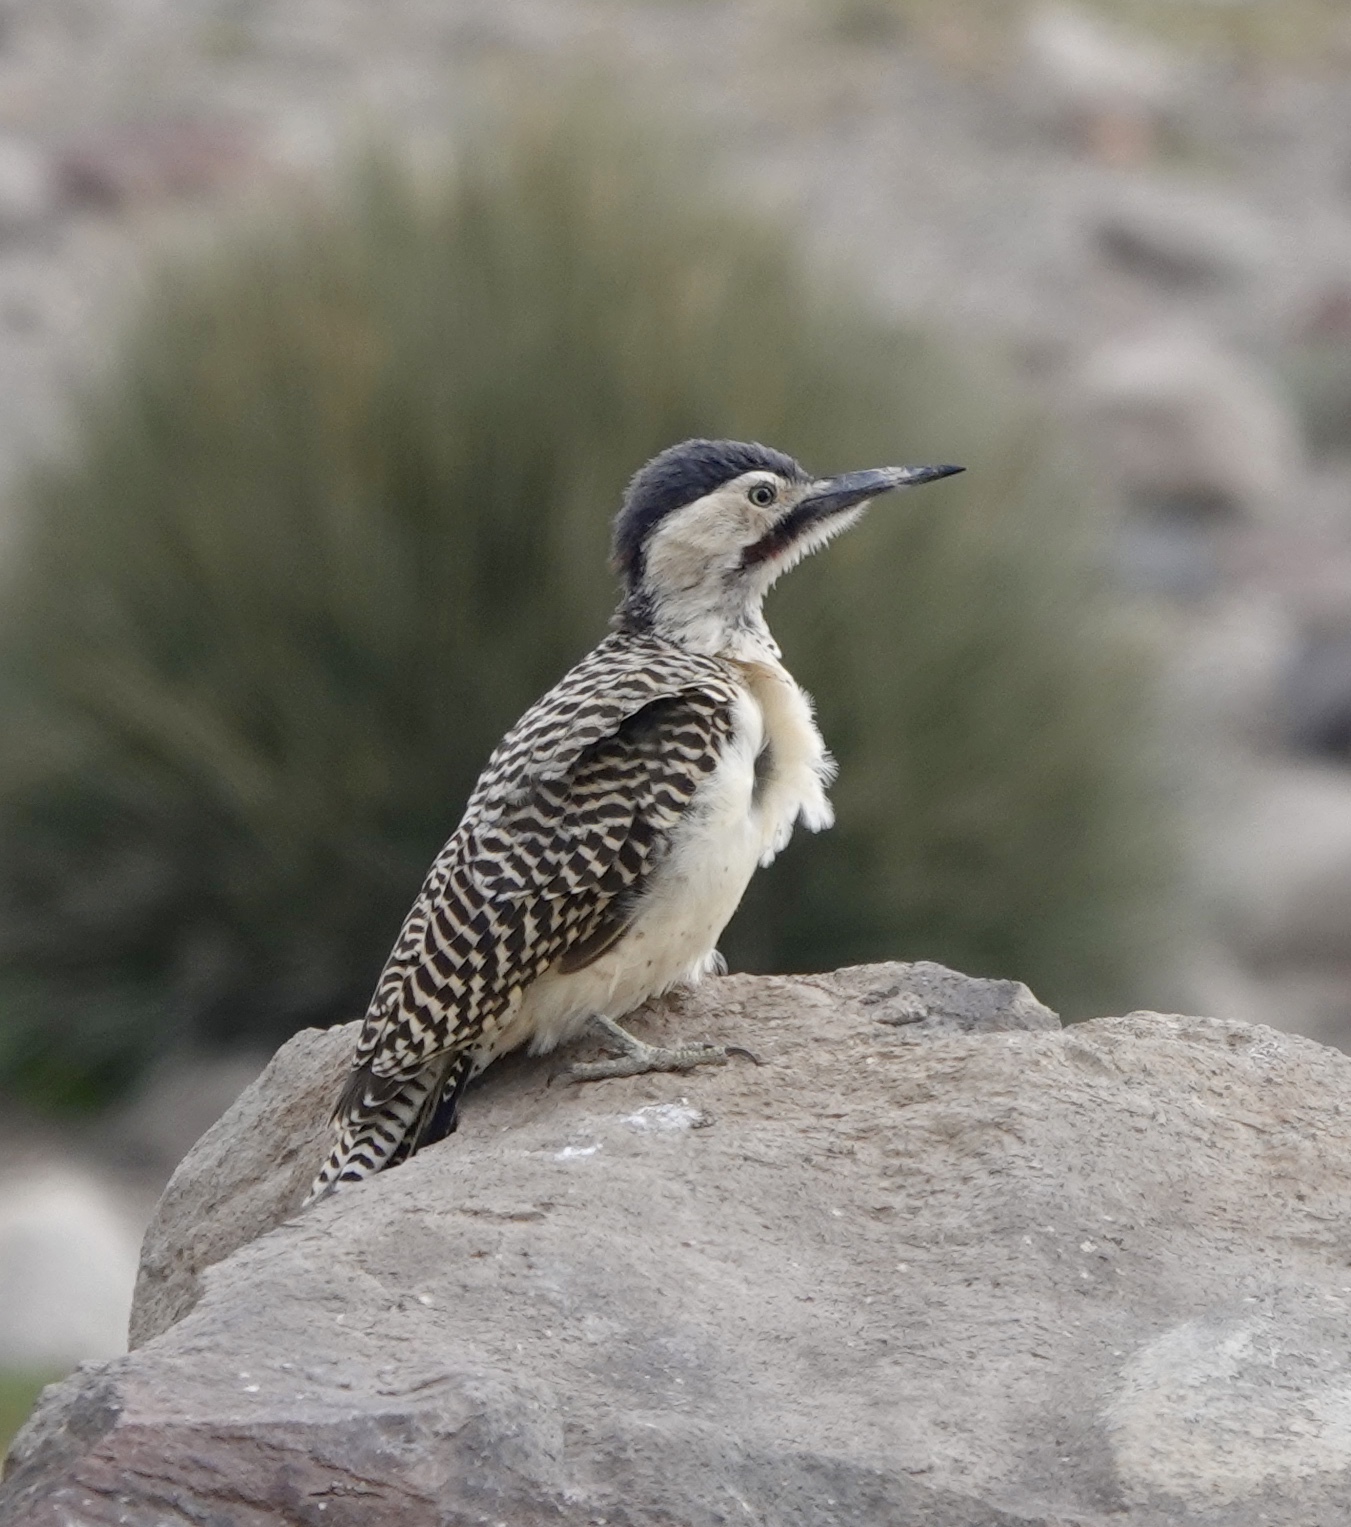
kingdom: Animalia
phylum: Chordata
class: Aves
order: Piciformes
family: Picidae
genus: Colaptes
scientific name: Colaptes rupicola
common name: Andean flicker
